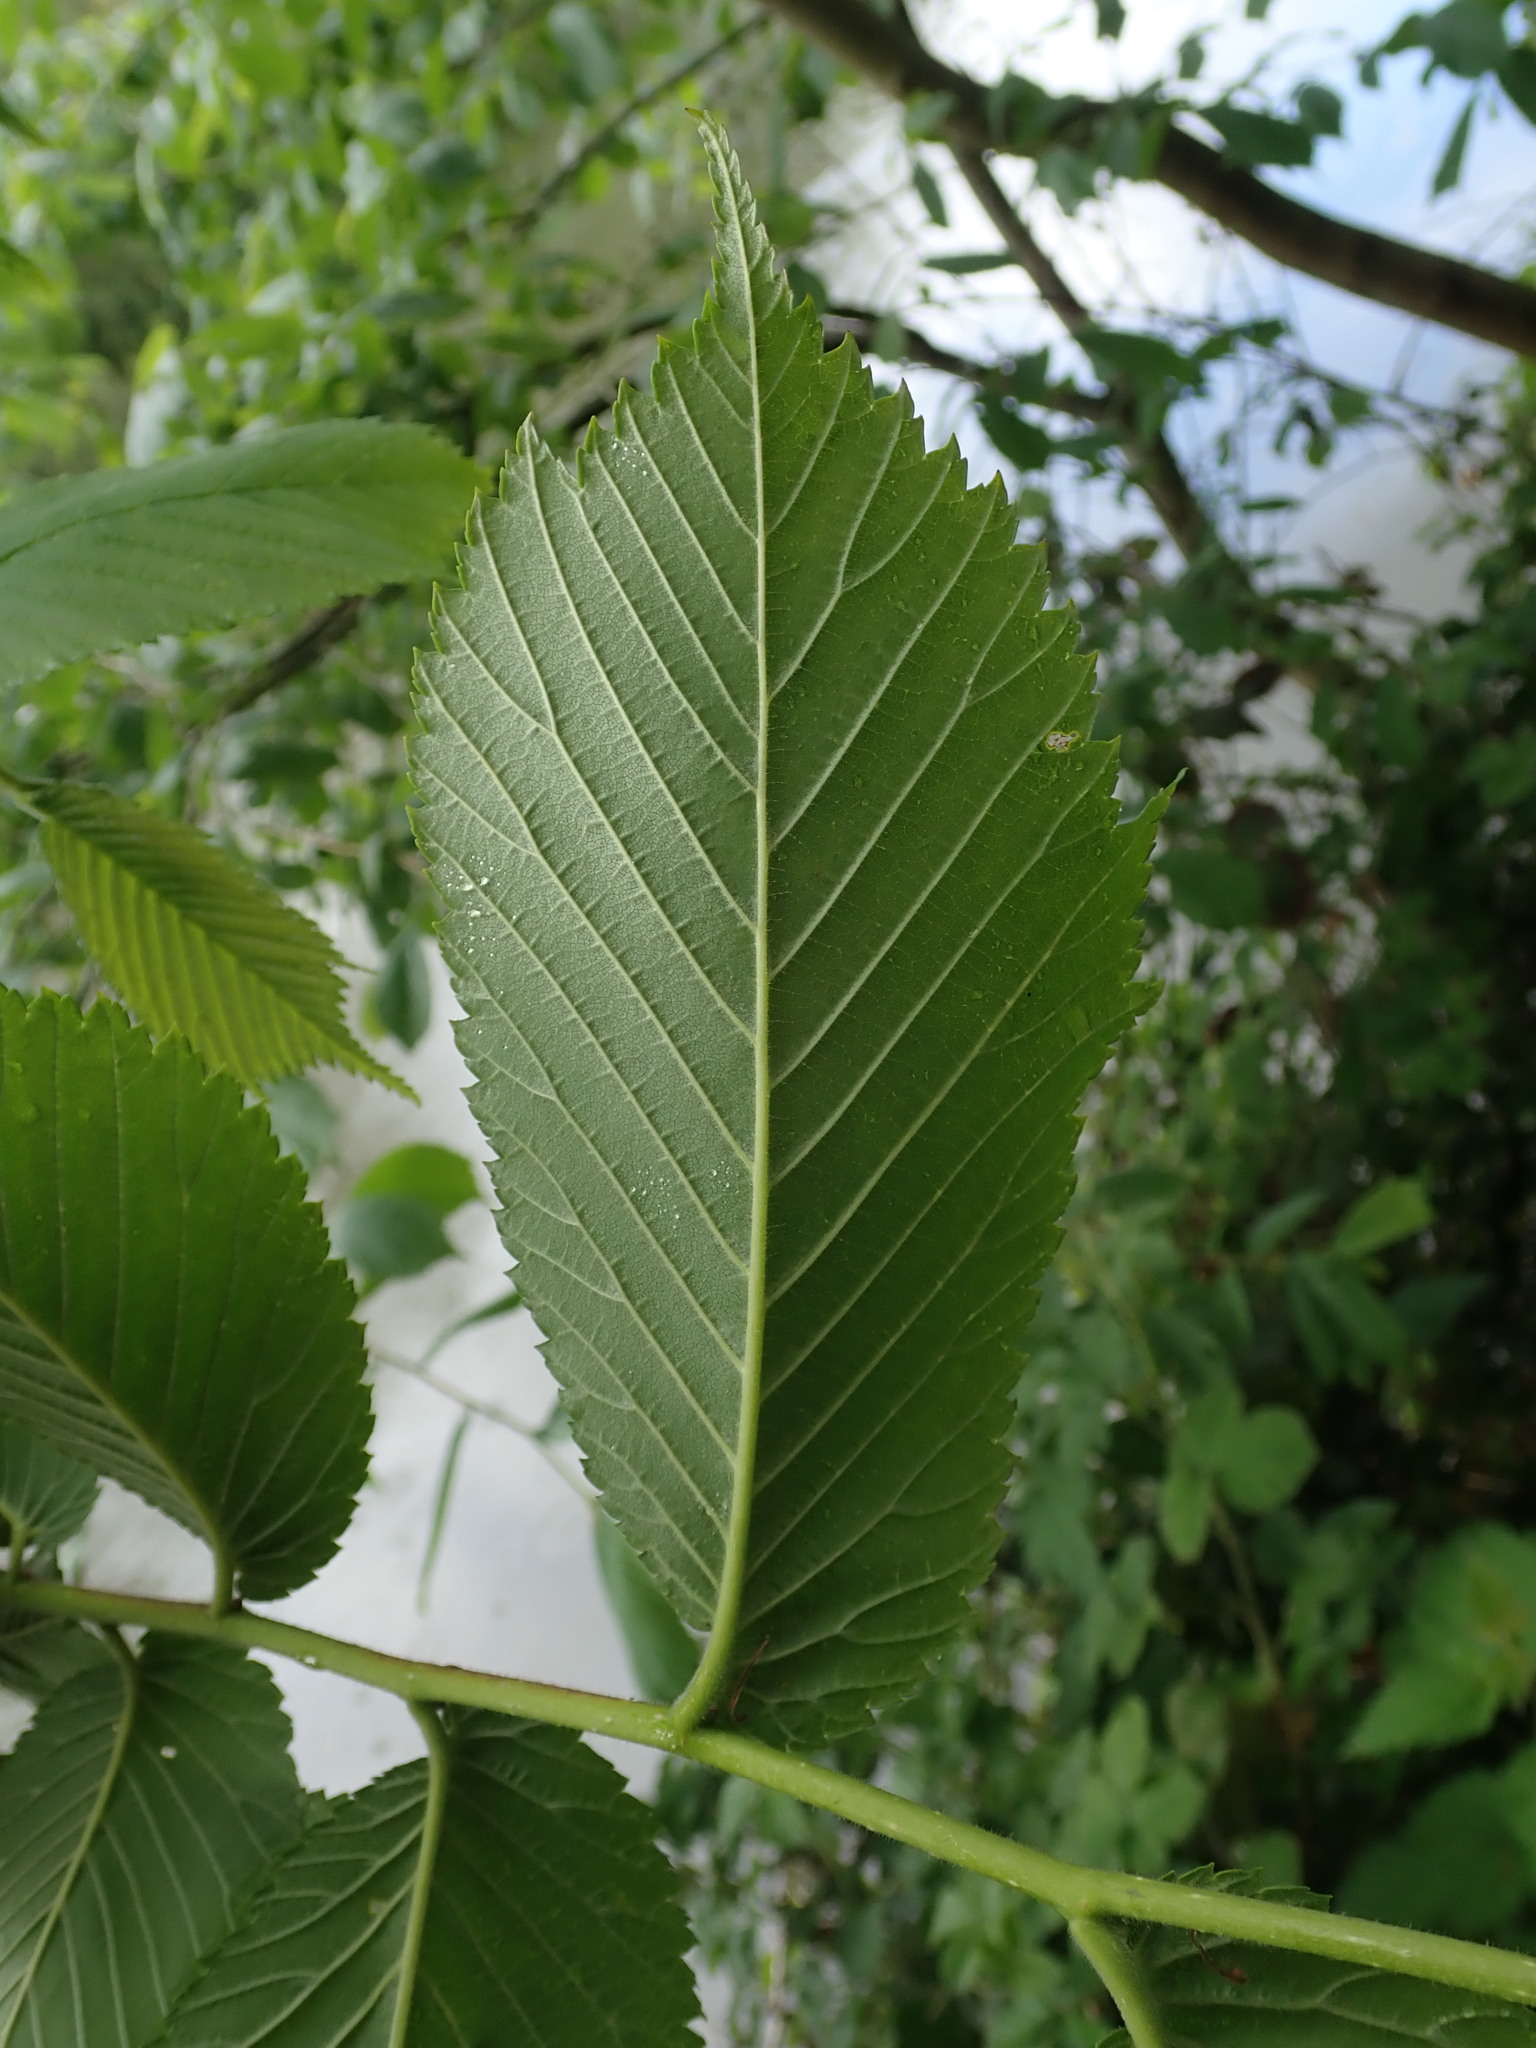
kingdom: Plantae
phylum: Tracheophyta
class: Magnoliopsida
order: Rosales
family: Ulmaceae
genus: Ulmus
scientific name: Ulmus glabra
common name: Wych elm
